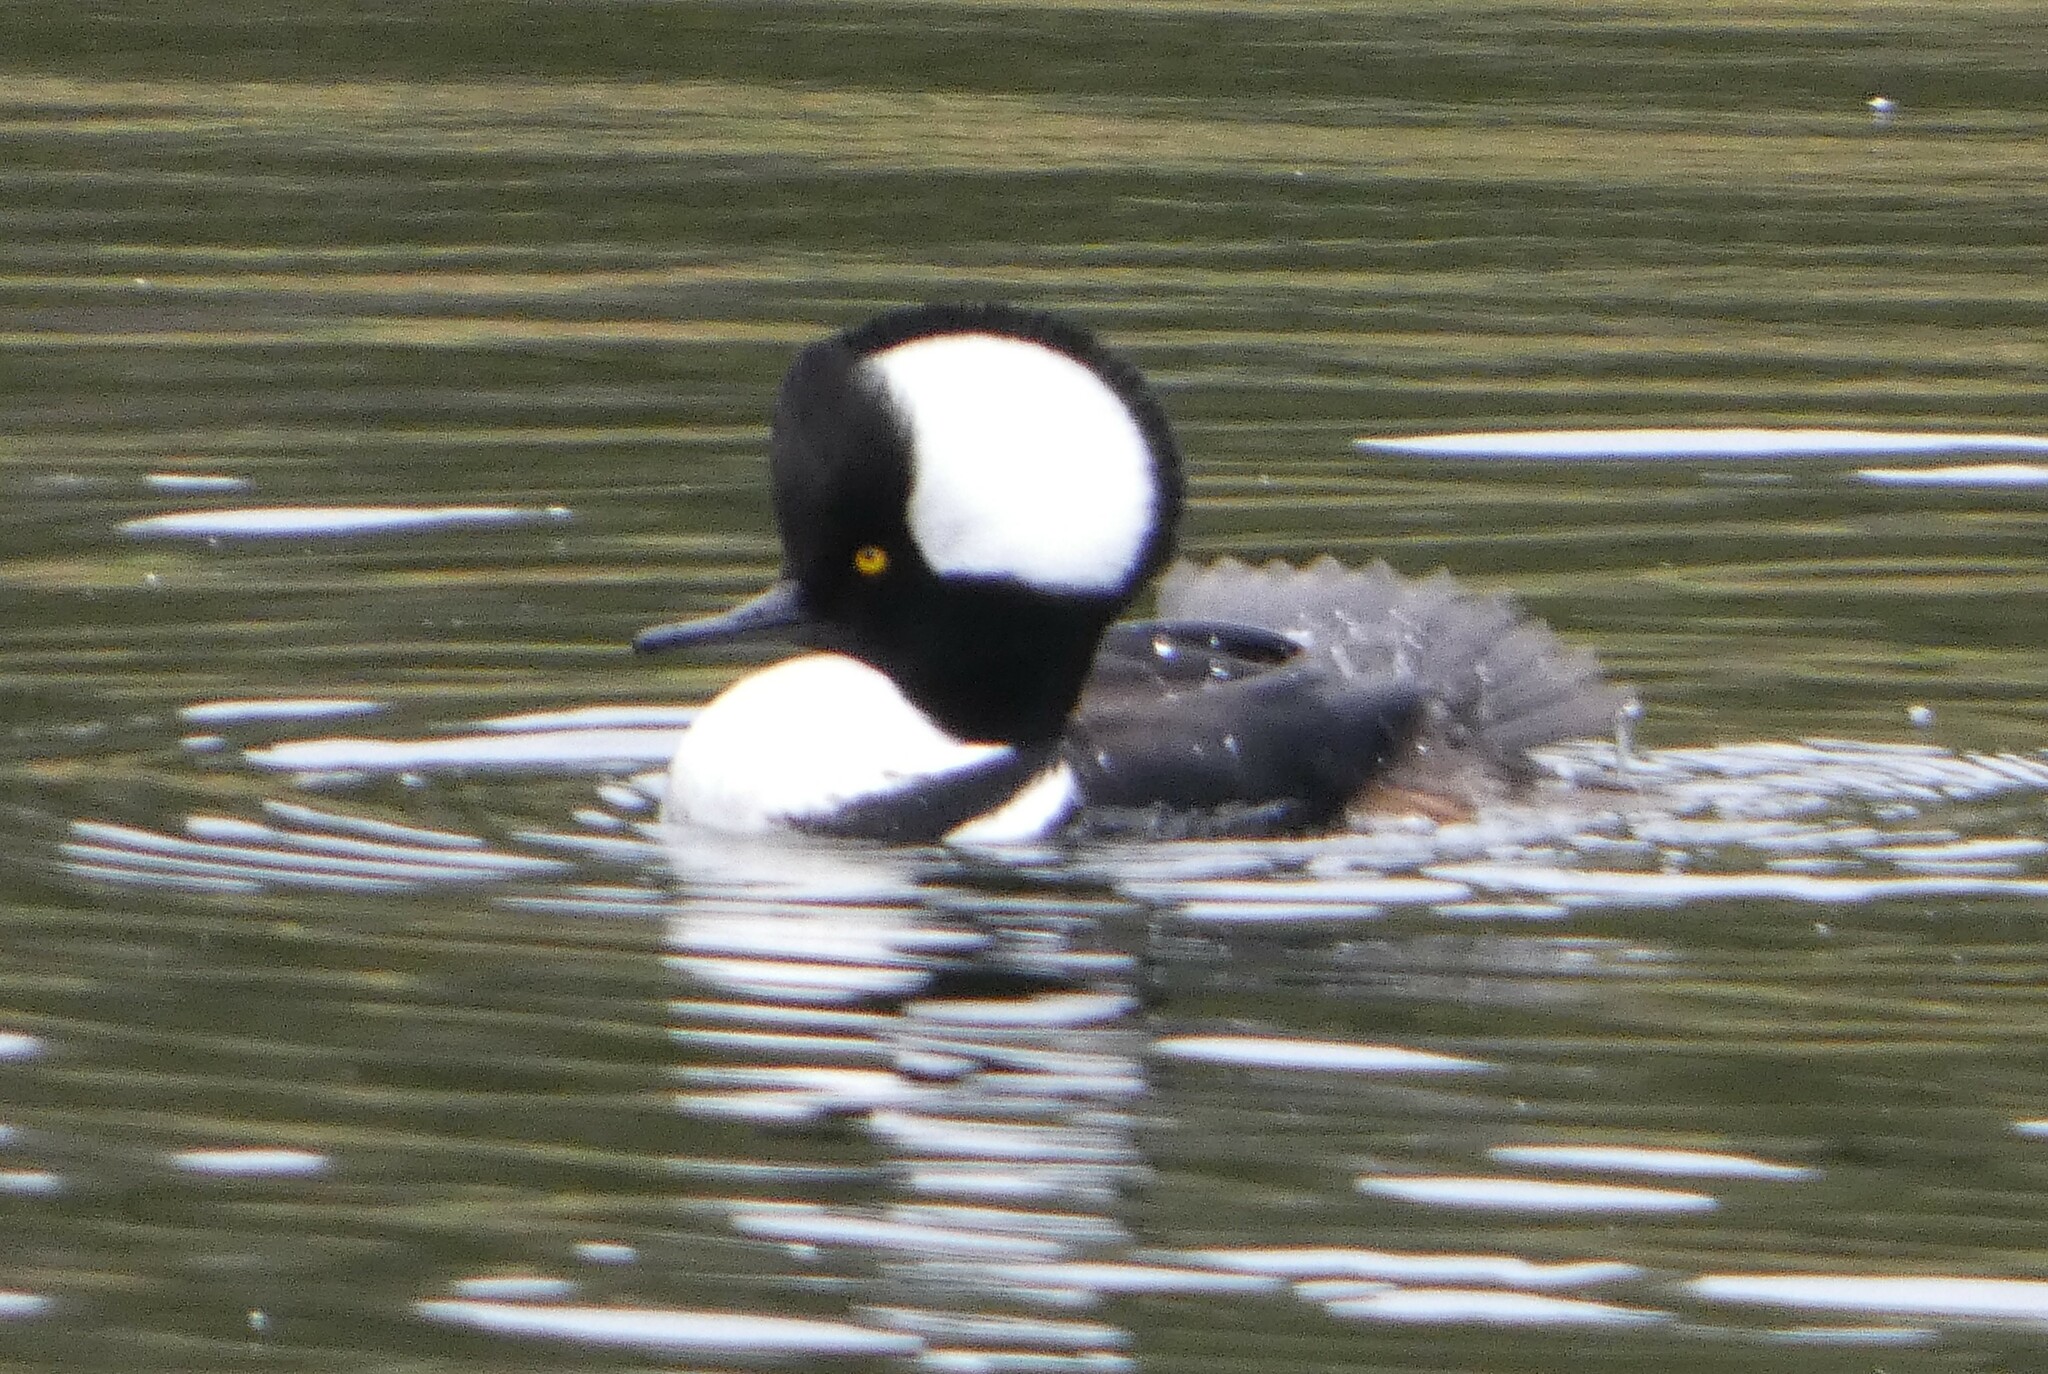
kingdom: Animalia
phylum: Chordata
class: Aves
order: Anseriformes
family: Anatidae
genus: Lophodytes
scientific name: Lophodytes cucullatus
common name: Hooded merganser
